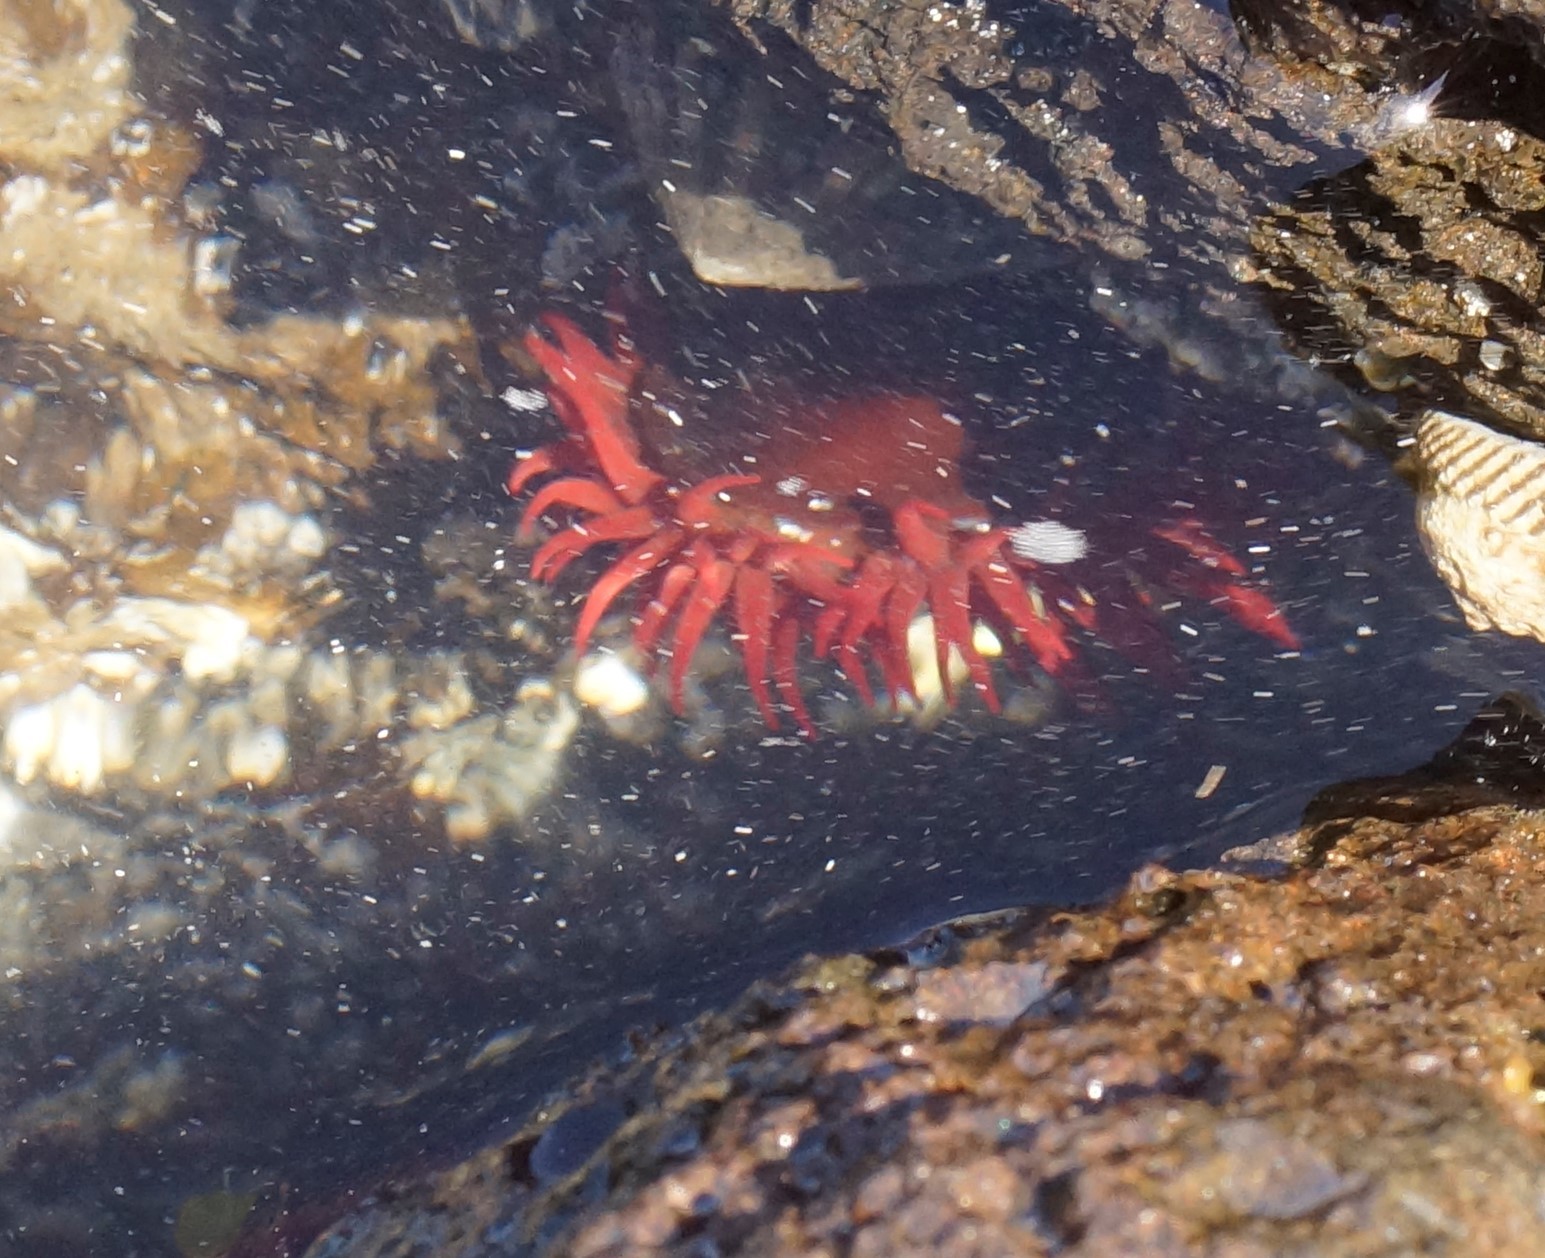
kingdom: Animalia
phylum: Cnidaria
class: Anthozoa
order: Actiniaria
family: Actiniidae
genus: Actinia
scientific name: Actinia tenebrosa
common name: Waratah anemone
